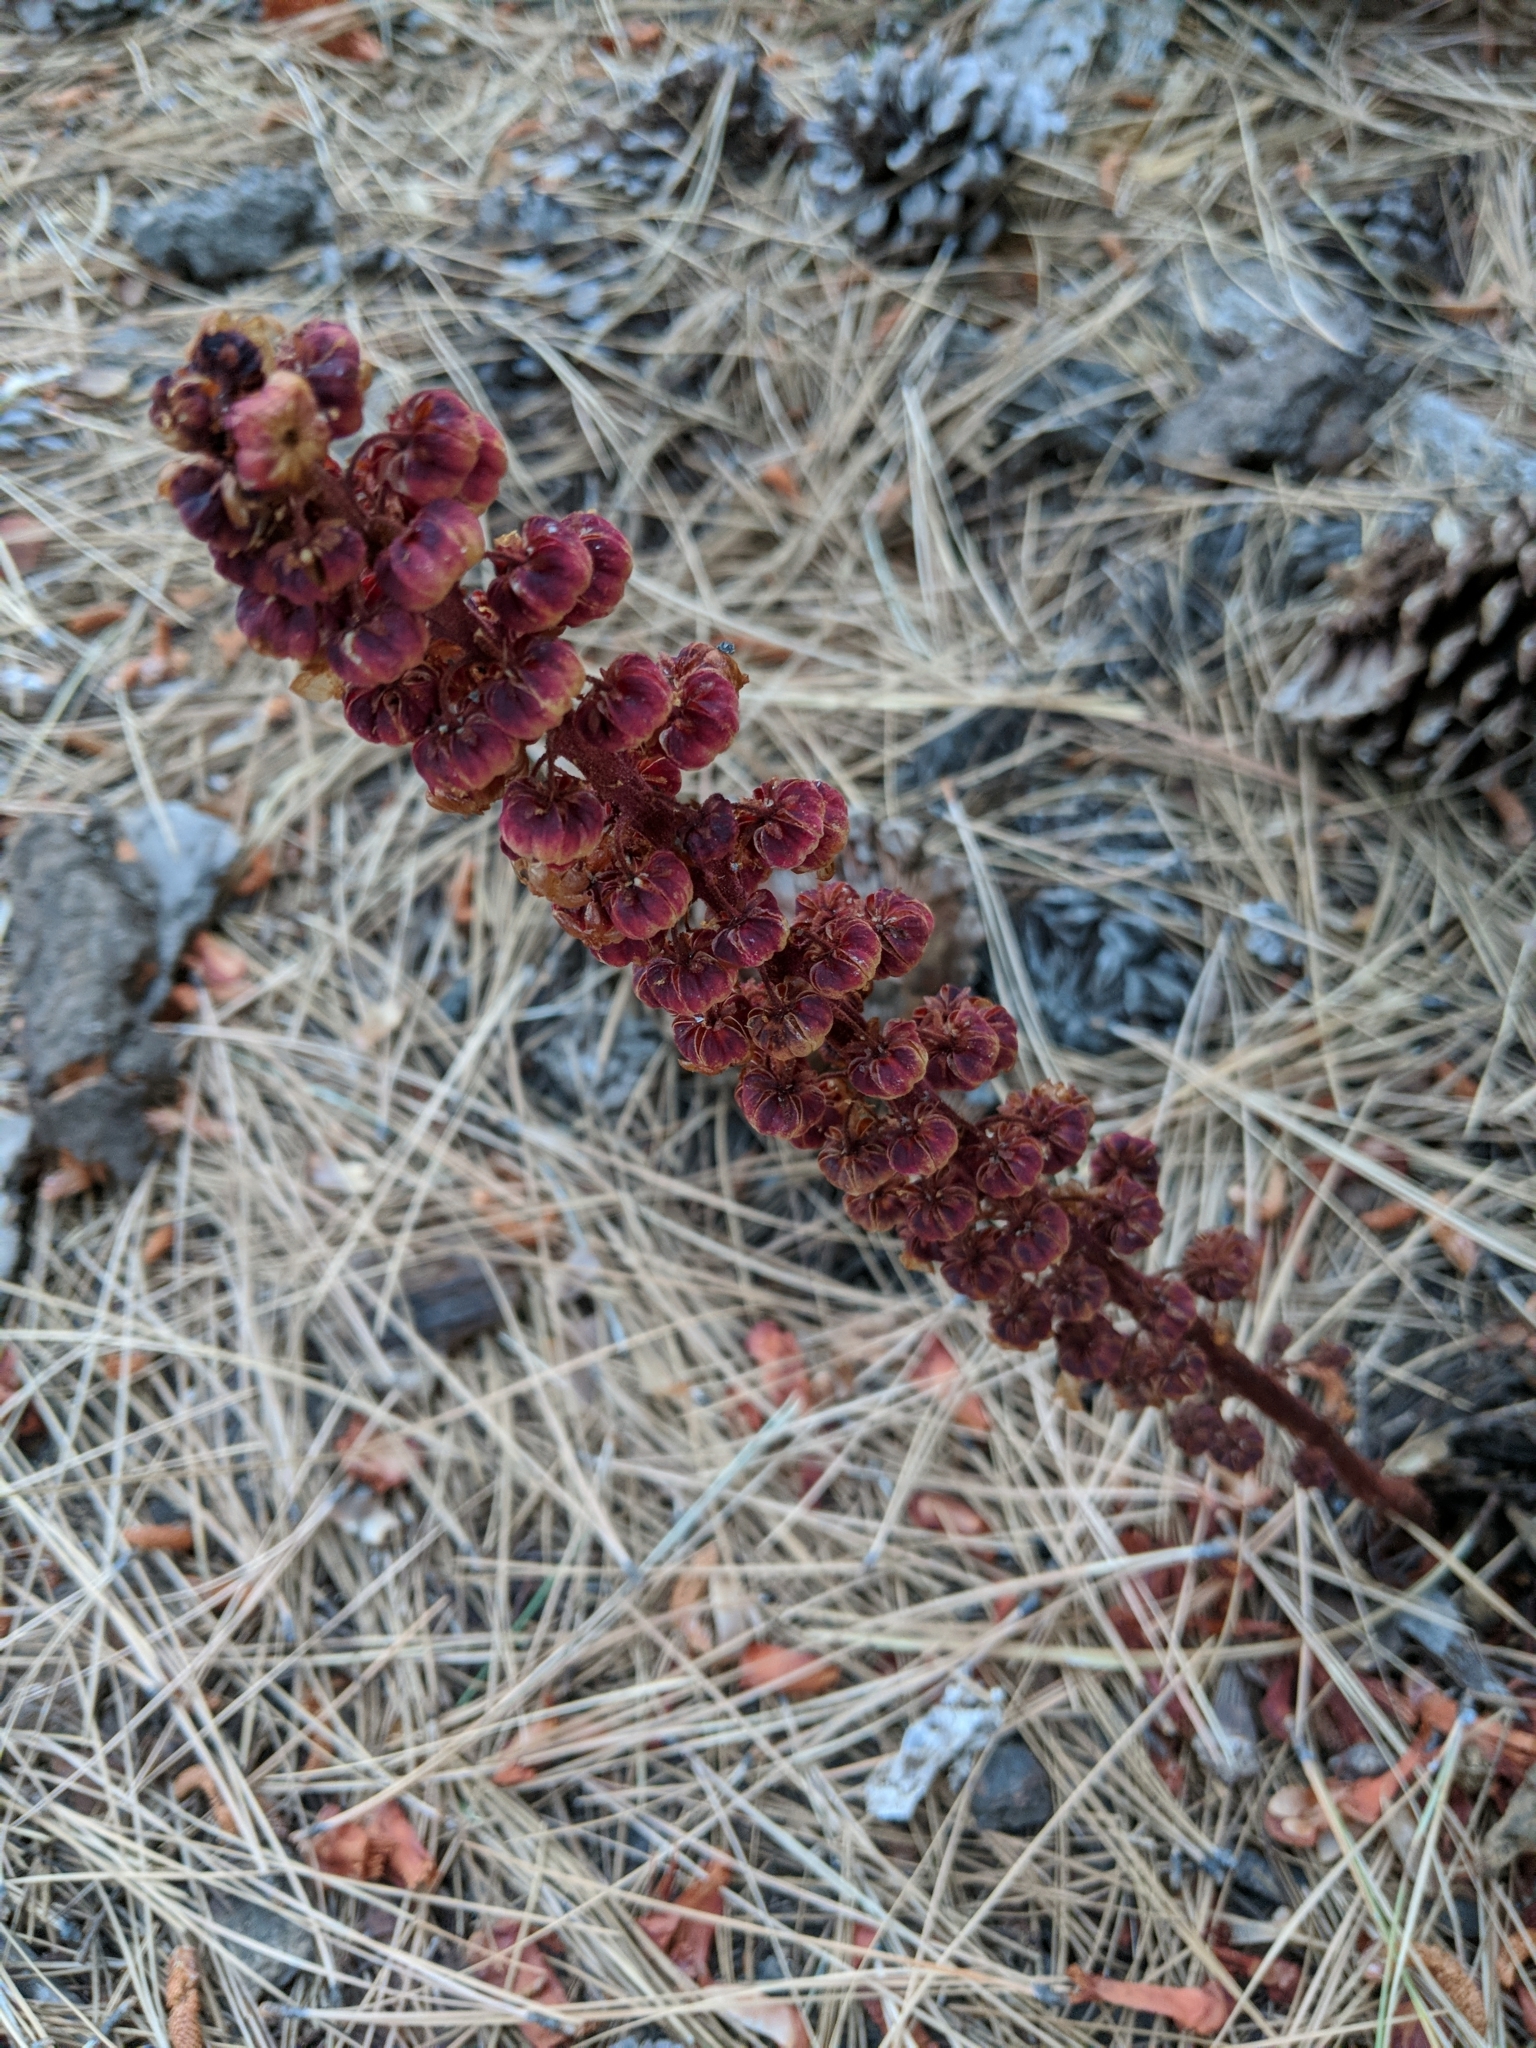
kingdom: Plantae
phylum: Tracheophyta
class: Magnoliopsida
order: Ericales
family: Ericaceae
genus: Pterospora
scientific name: Pterospora andromedea
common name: Giant bird's-nest
